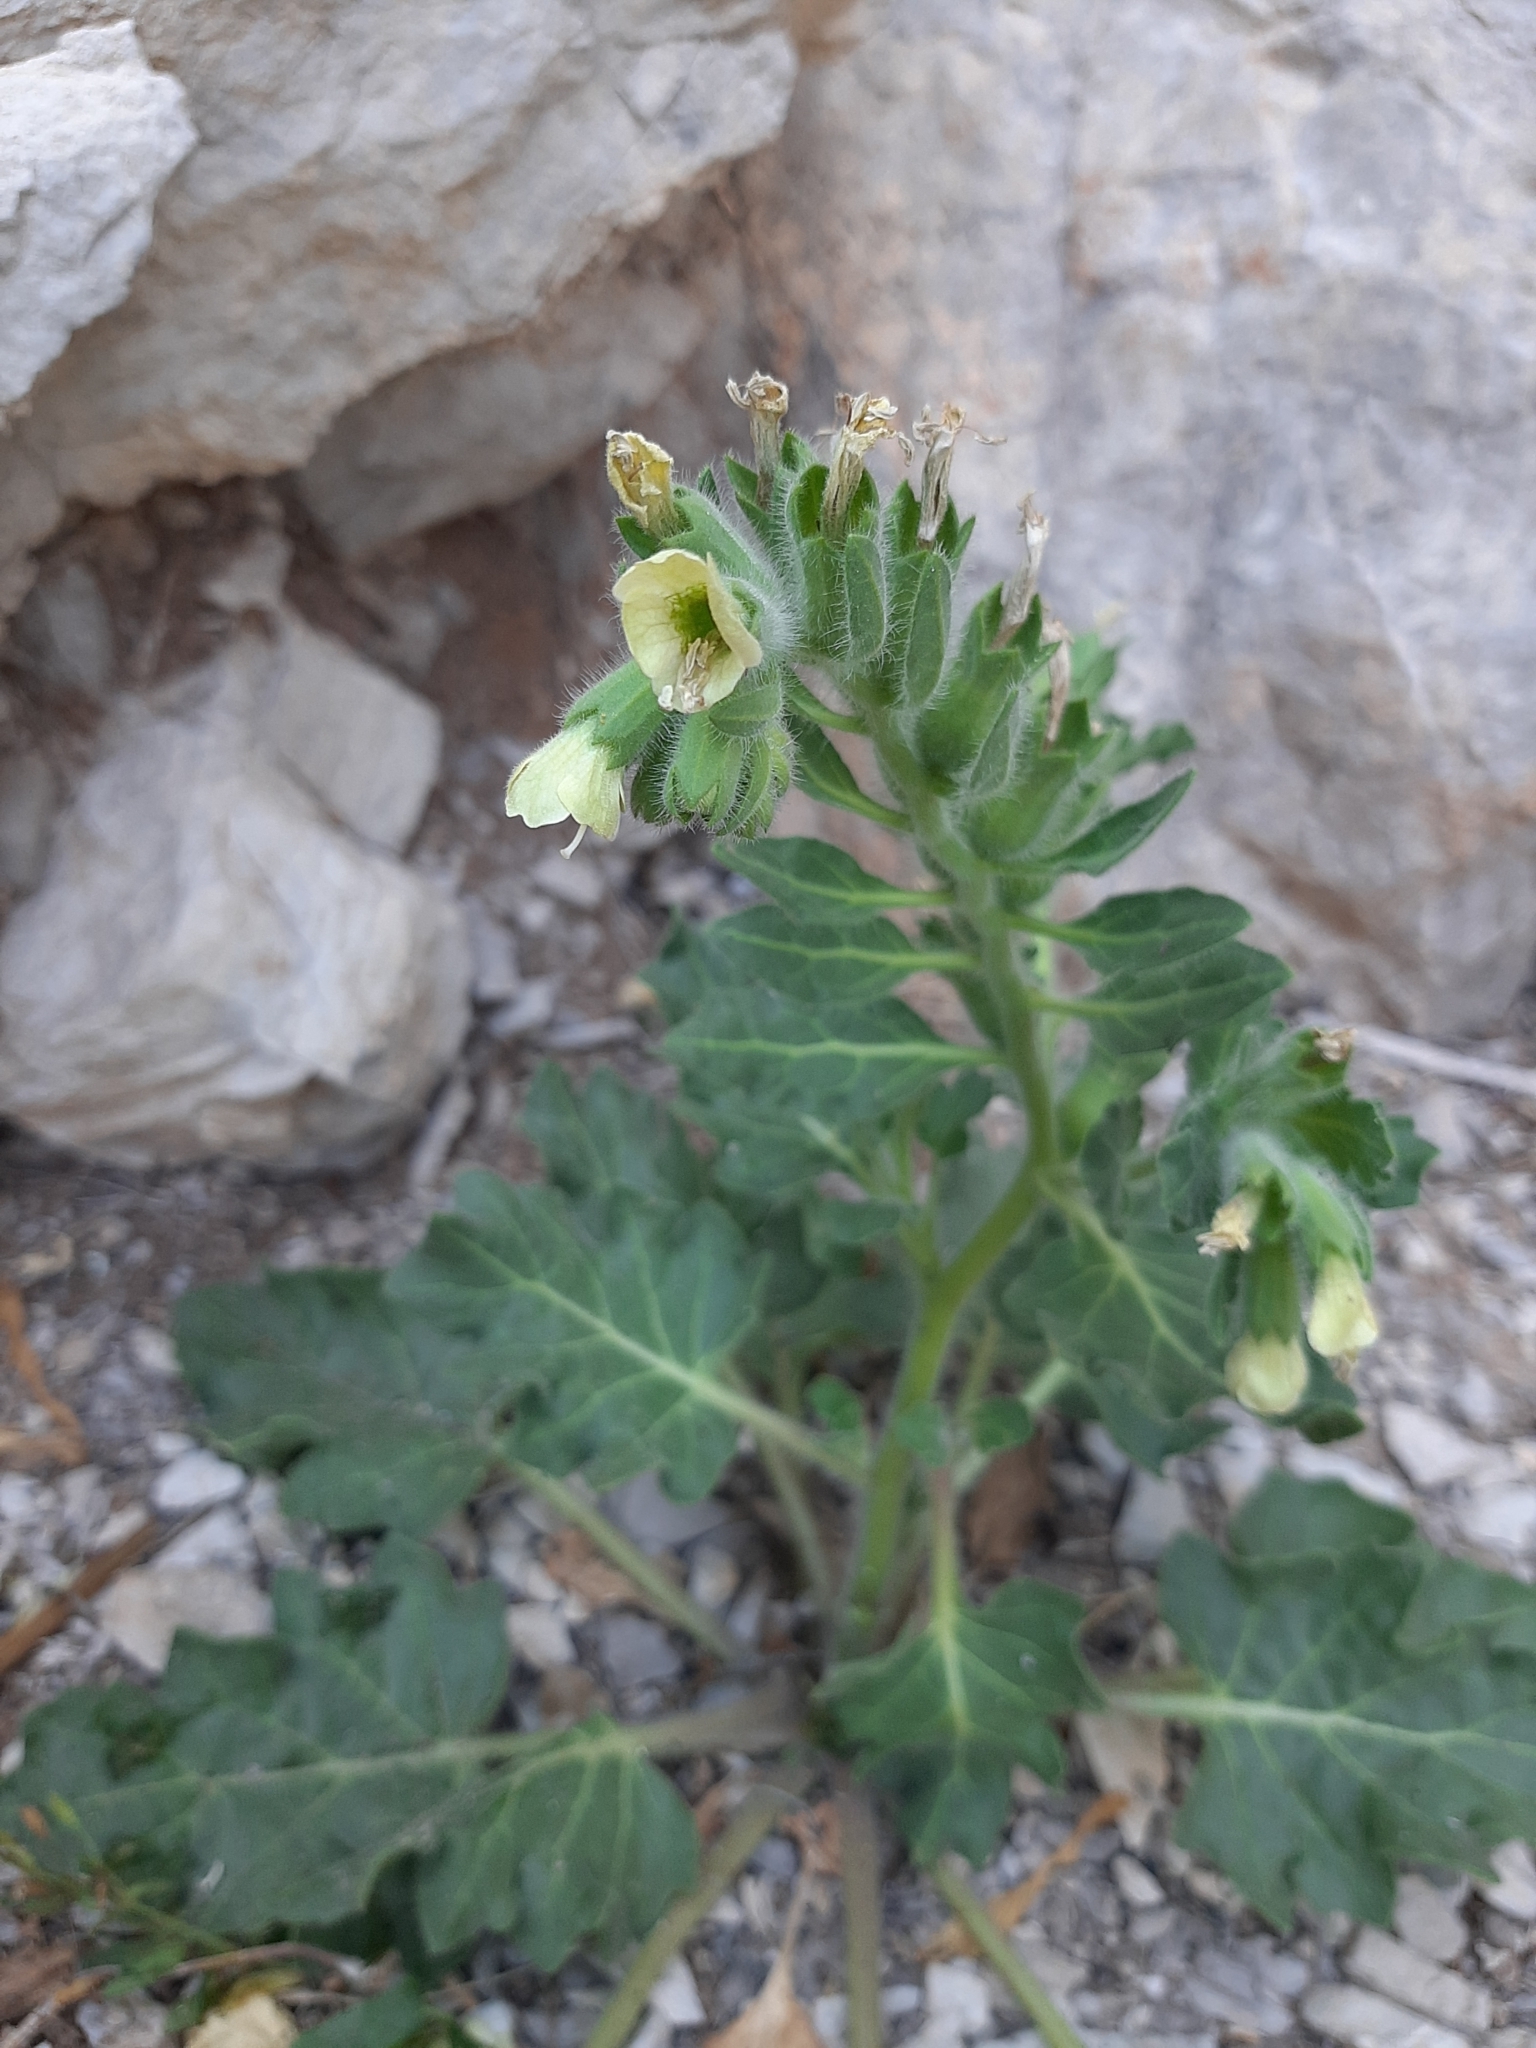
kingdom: Plantae
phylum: Tracheophyta
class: Magnoliopsida
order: Solanales
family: Solanaceae
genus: Hyoscyamus
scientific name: Hyoscyamus albus
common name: White henbane
